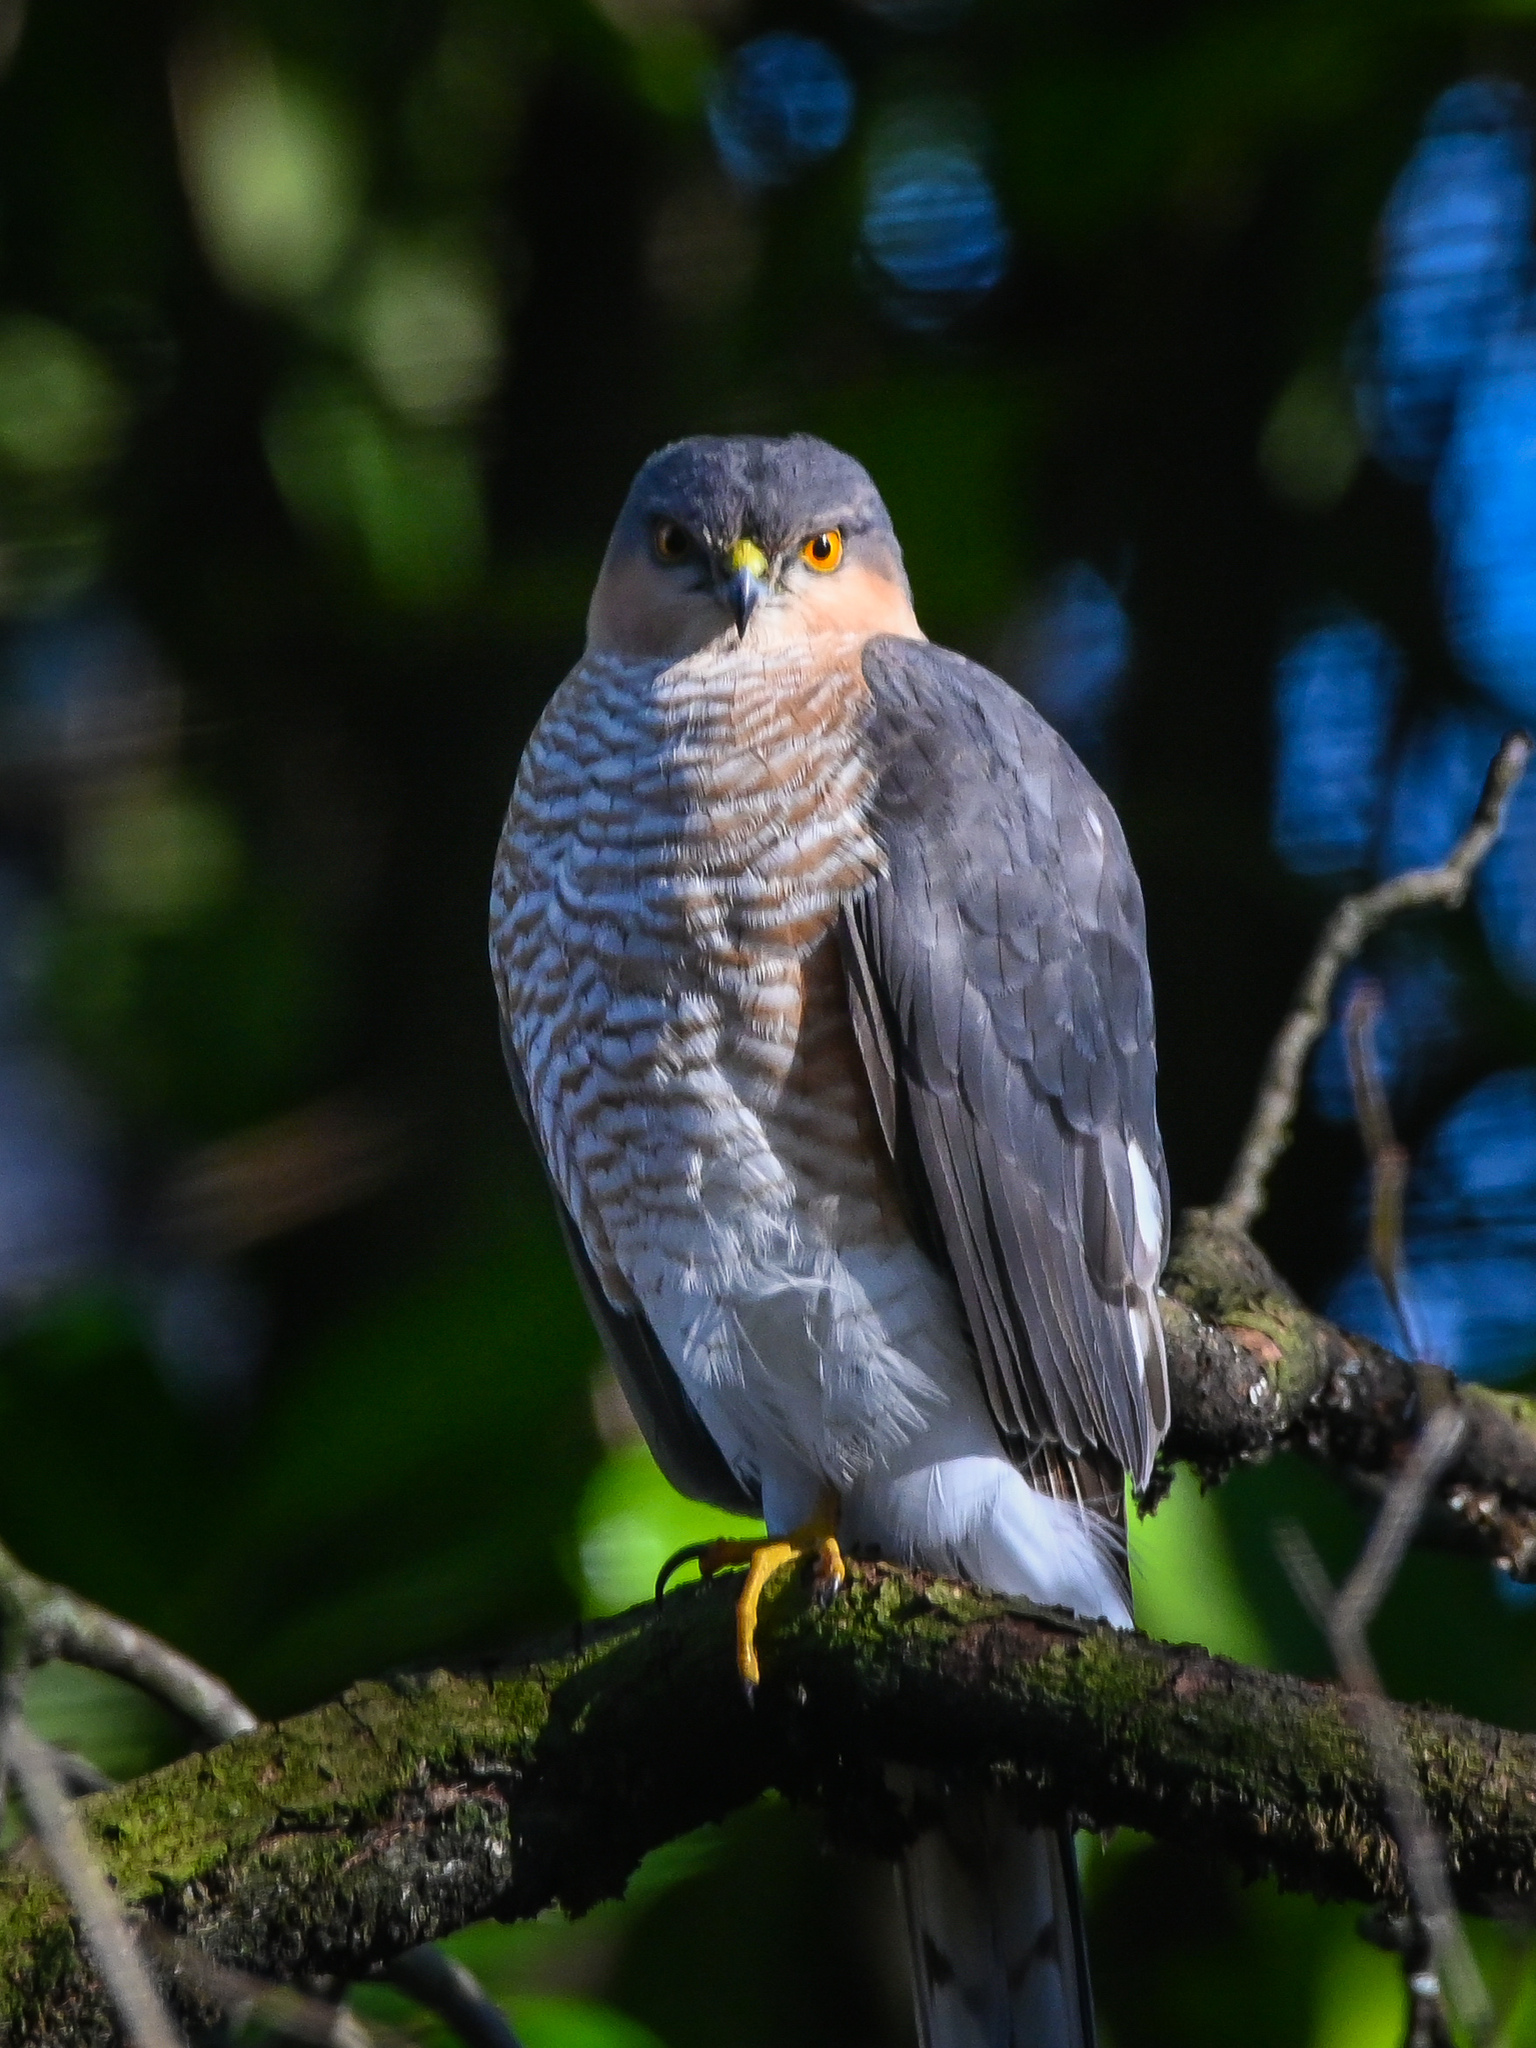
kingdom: Animalia
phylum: Chordata
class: Aves
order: Accipitriformes
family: Accipitridae
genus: Accipiter
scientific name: Accipiter nisus
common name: Eurasian sparrowhawk
